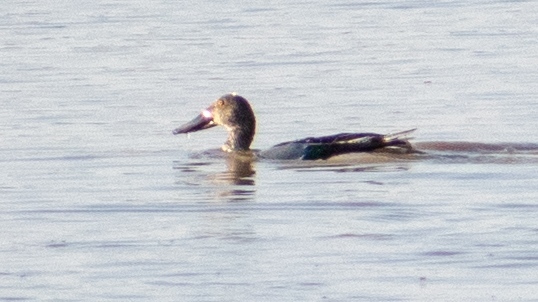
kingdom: Animalia
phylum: Chordata
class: Aves
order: Anseriformes
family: Anatidae
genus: Spatula
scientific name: Spatula clypeata
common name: Northern shoveler
